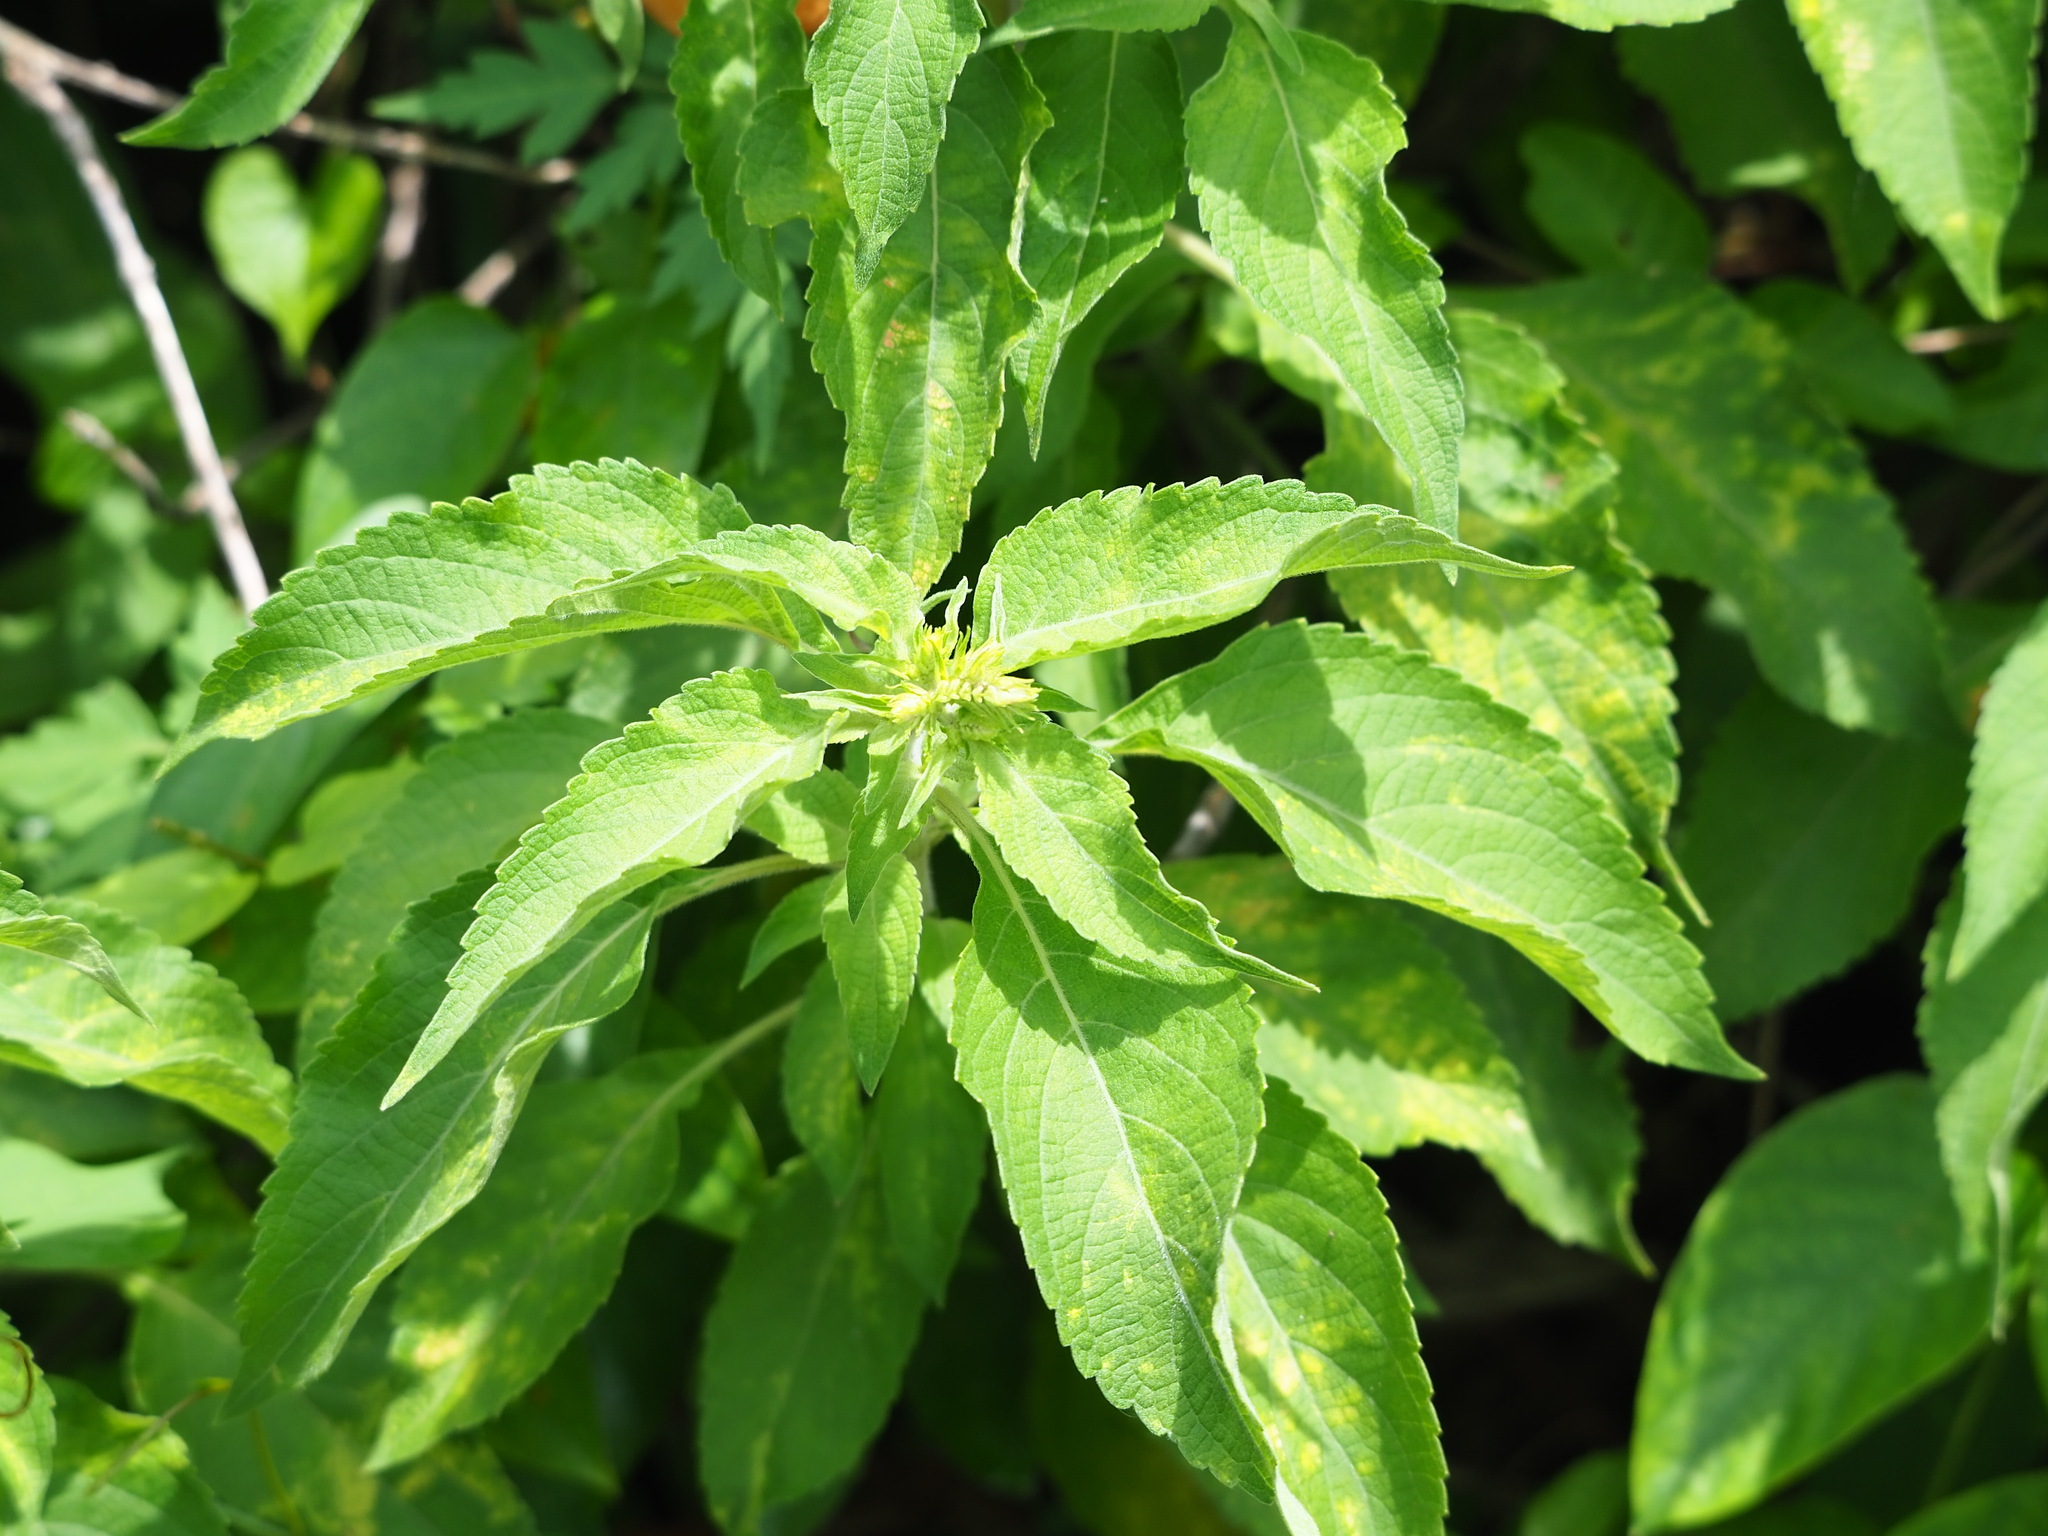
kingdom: Plantae
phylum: Tracheophyta
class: Magnoliopsida
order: Lamiales
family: Lamiaceae
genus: Ocimum
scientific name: Ocimum gratissimum
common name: African basil
